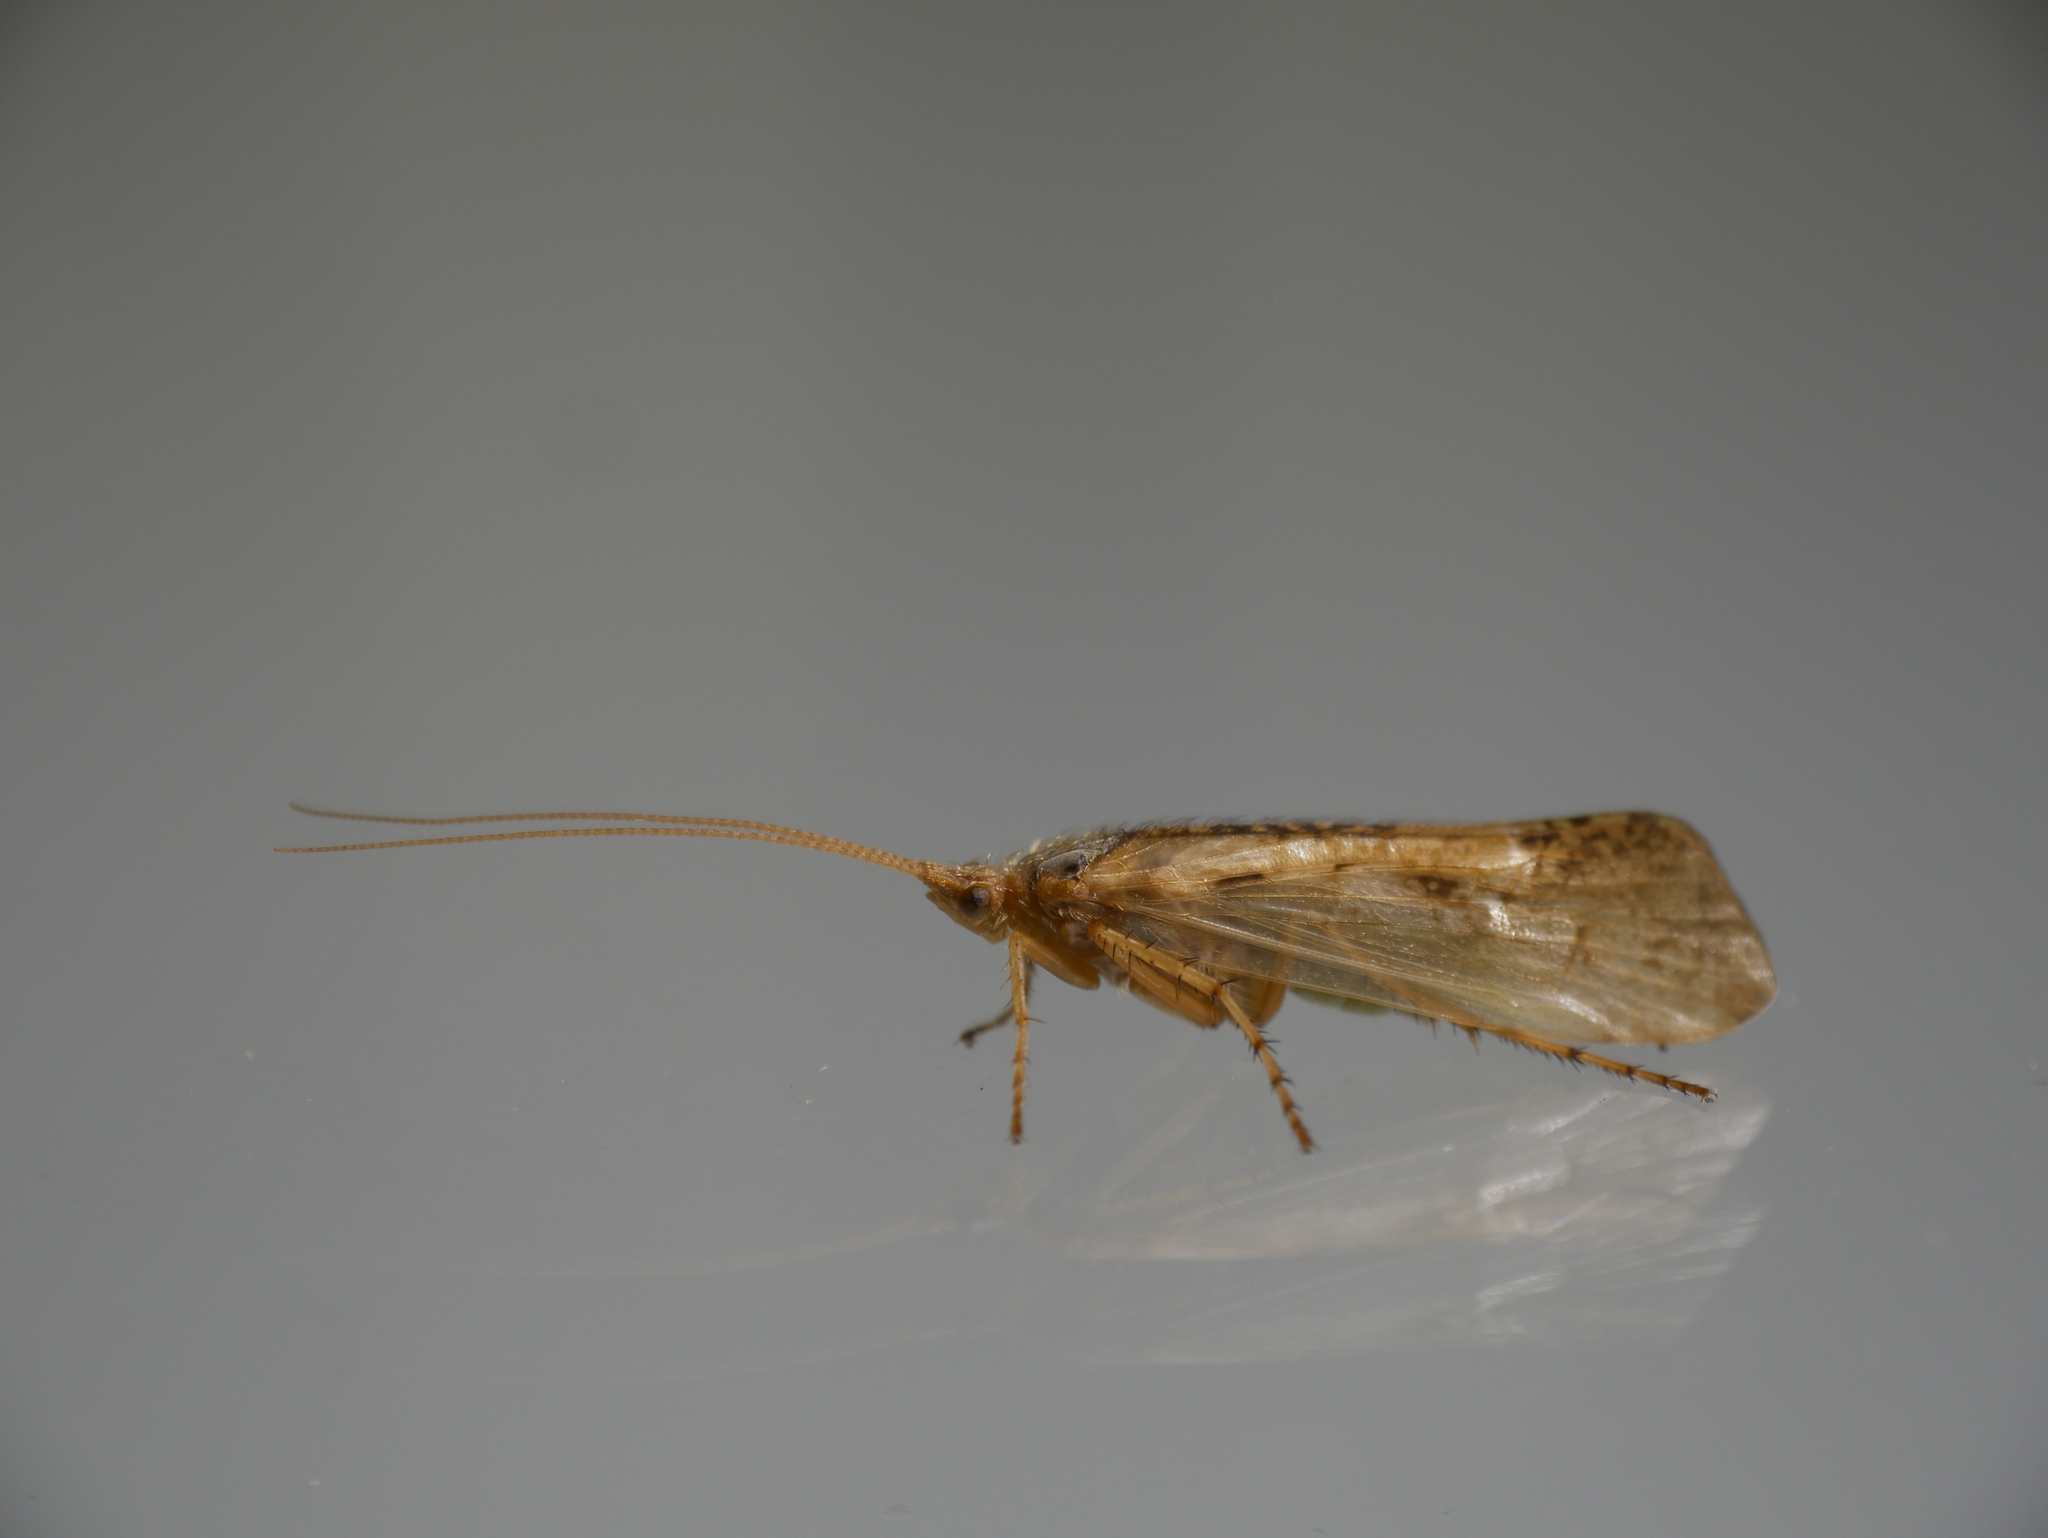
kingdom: Animalia
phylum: Arthropoda
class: Insecta
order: Trichoptera
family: Limnephilidae
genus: Limnephilus
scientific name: Limnephilus flavicornis
